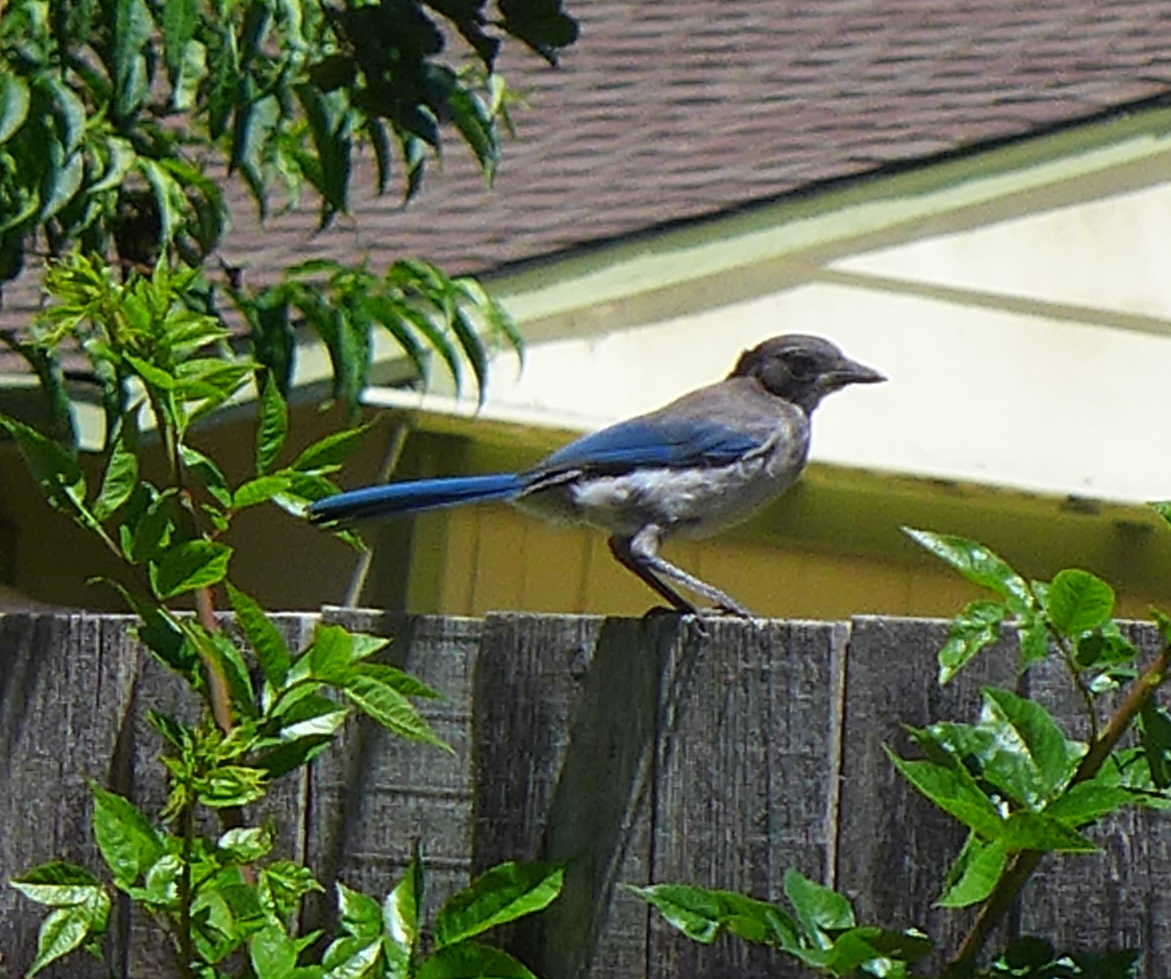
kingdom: Animalia
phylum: Chordata
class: Aves
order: Passeriformes
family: Corvidae
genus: Aphelocoma
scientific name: Aphelocoma californica
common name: California scrub-jay
